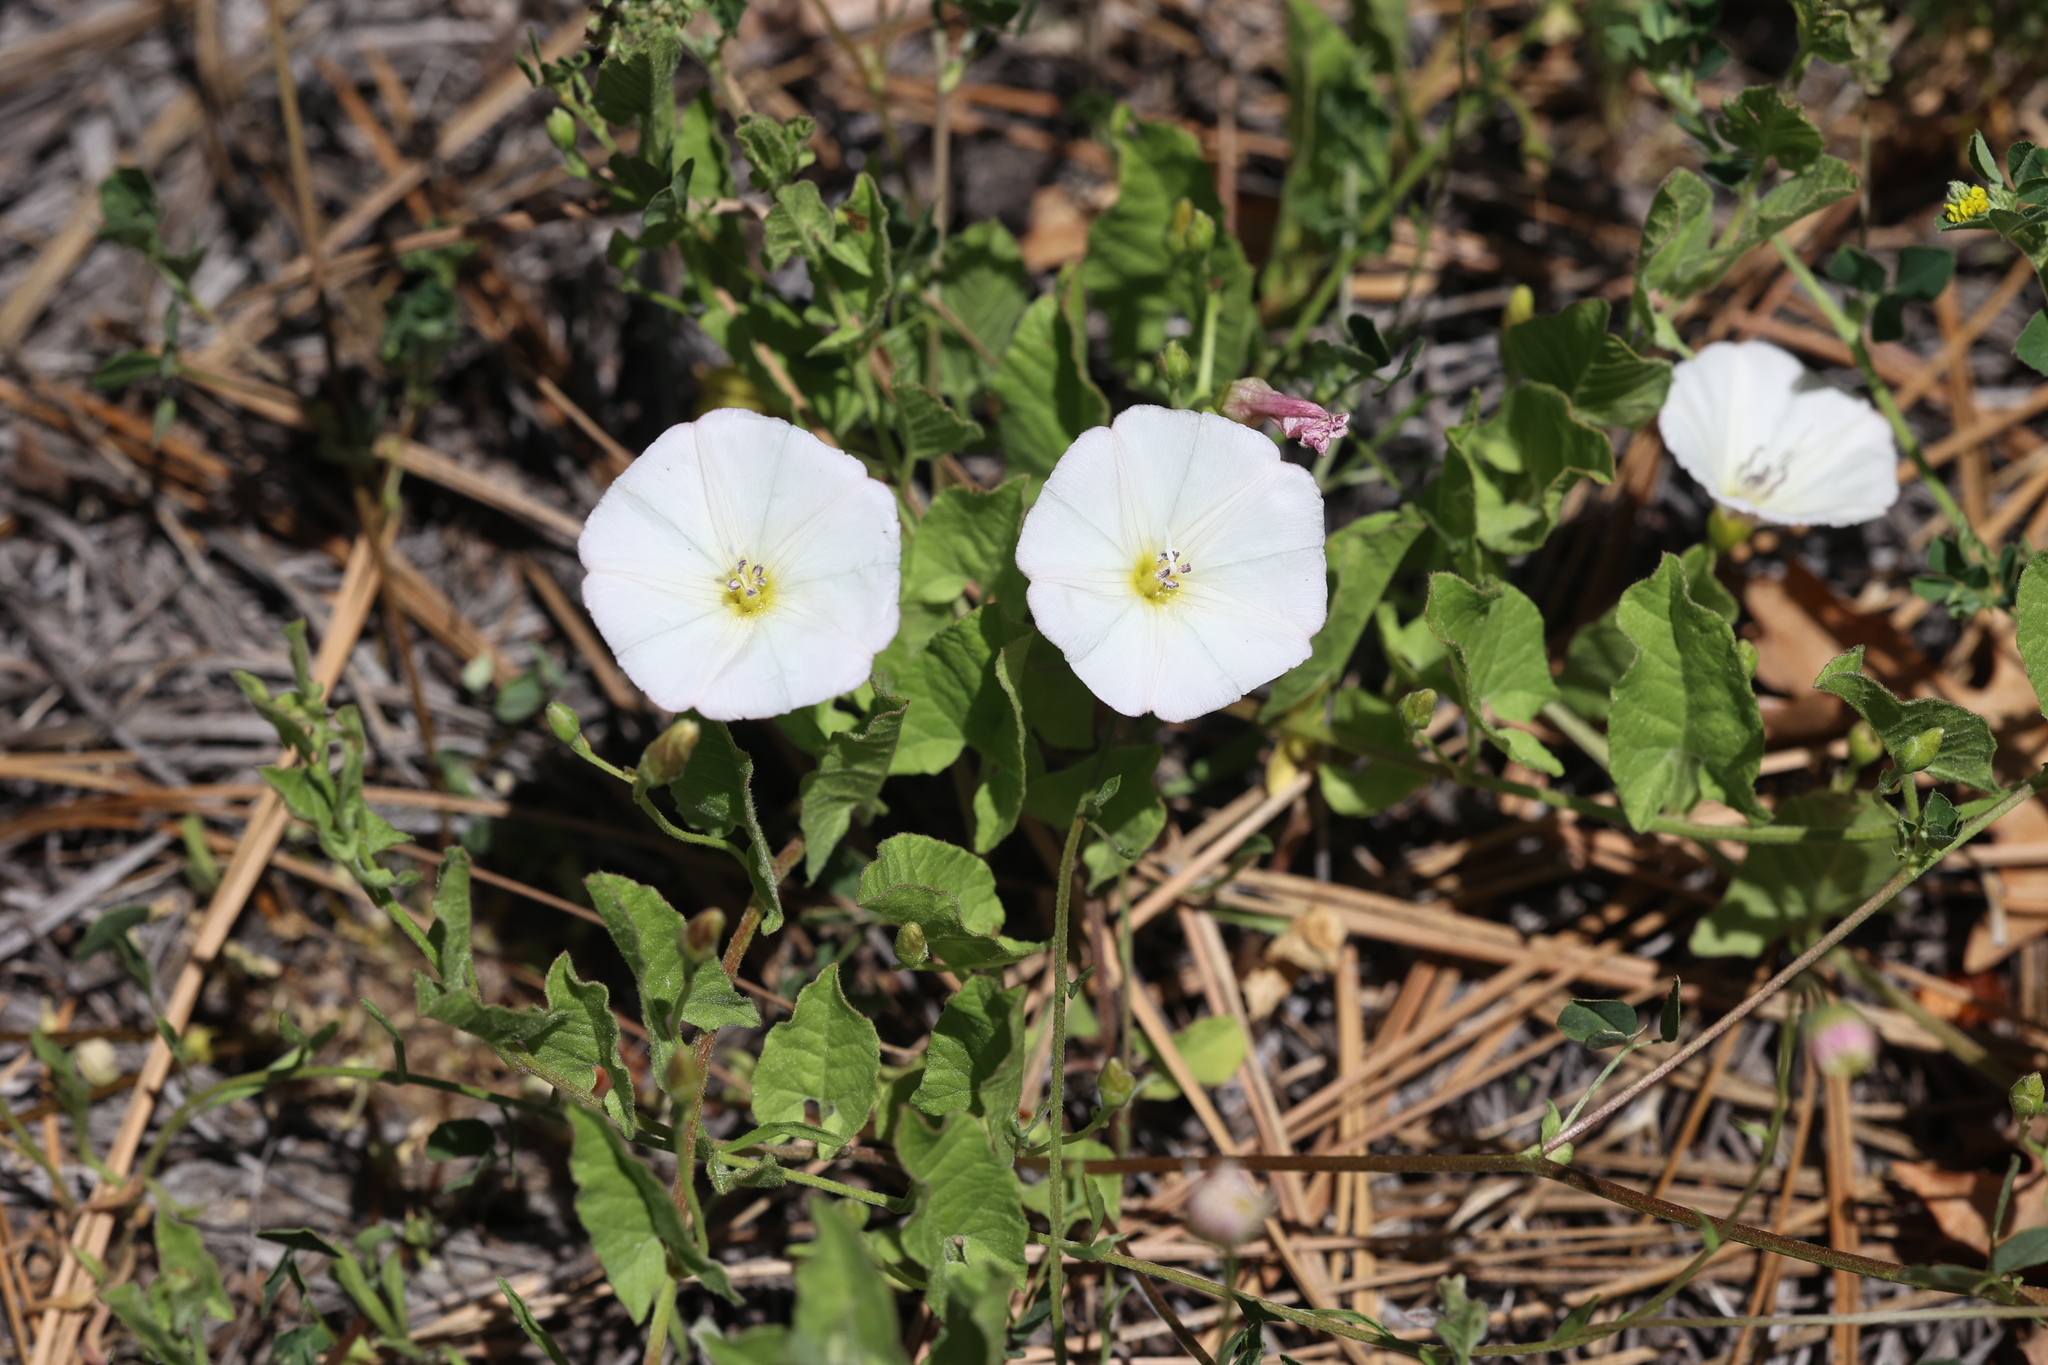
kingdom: Plantae
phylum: Tracheophyta
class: Magnoliopsida
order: Solanales
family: Convolvulaceae
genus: Convolvulus
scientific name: Convolvulus arvensis
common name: Field bindweed
